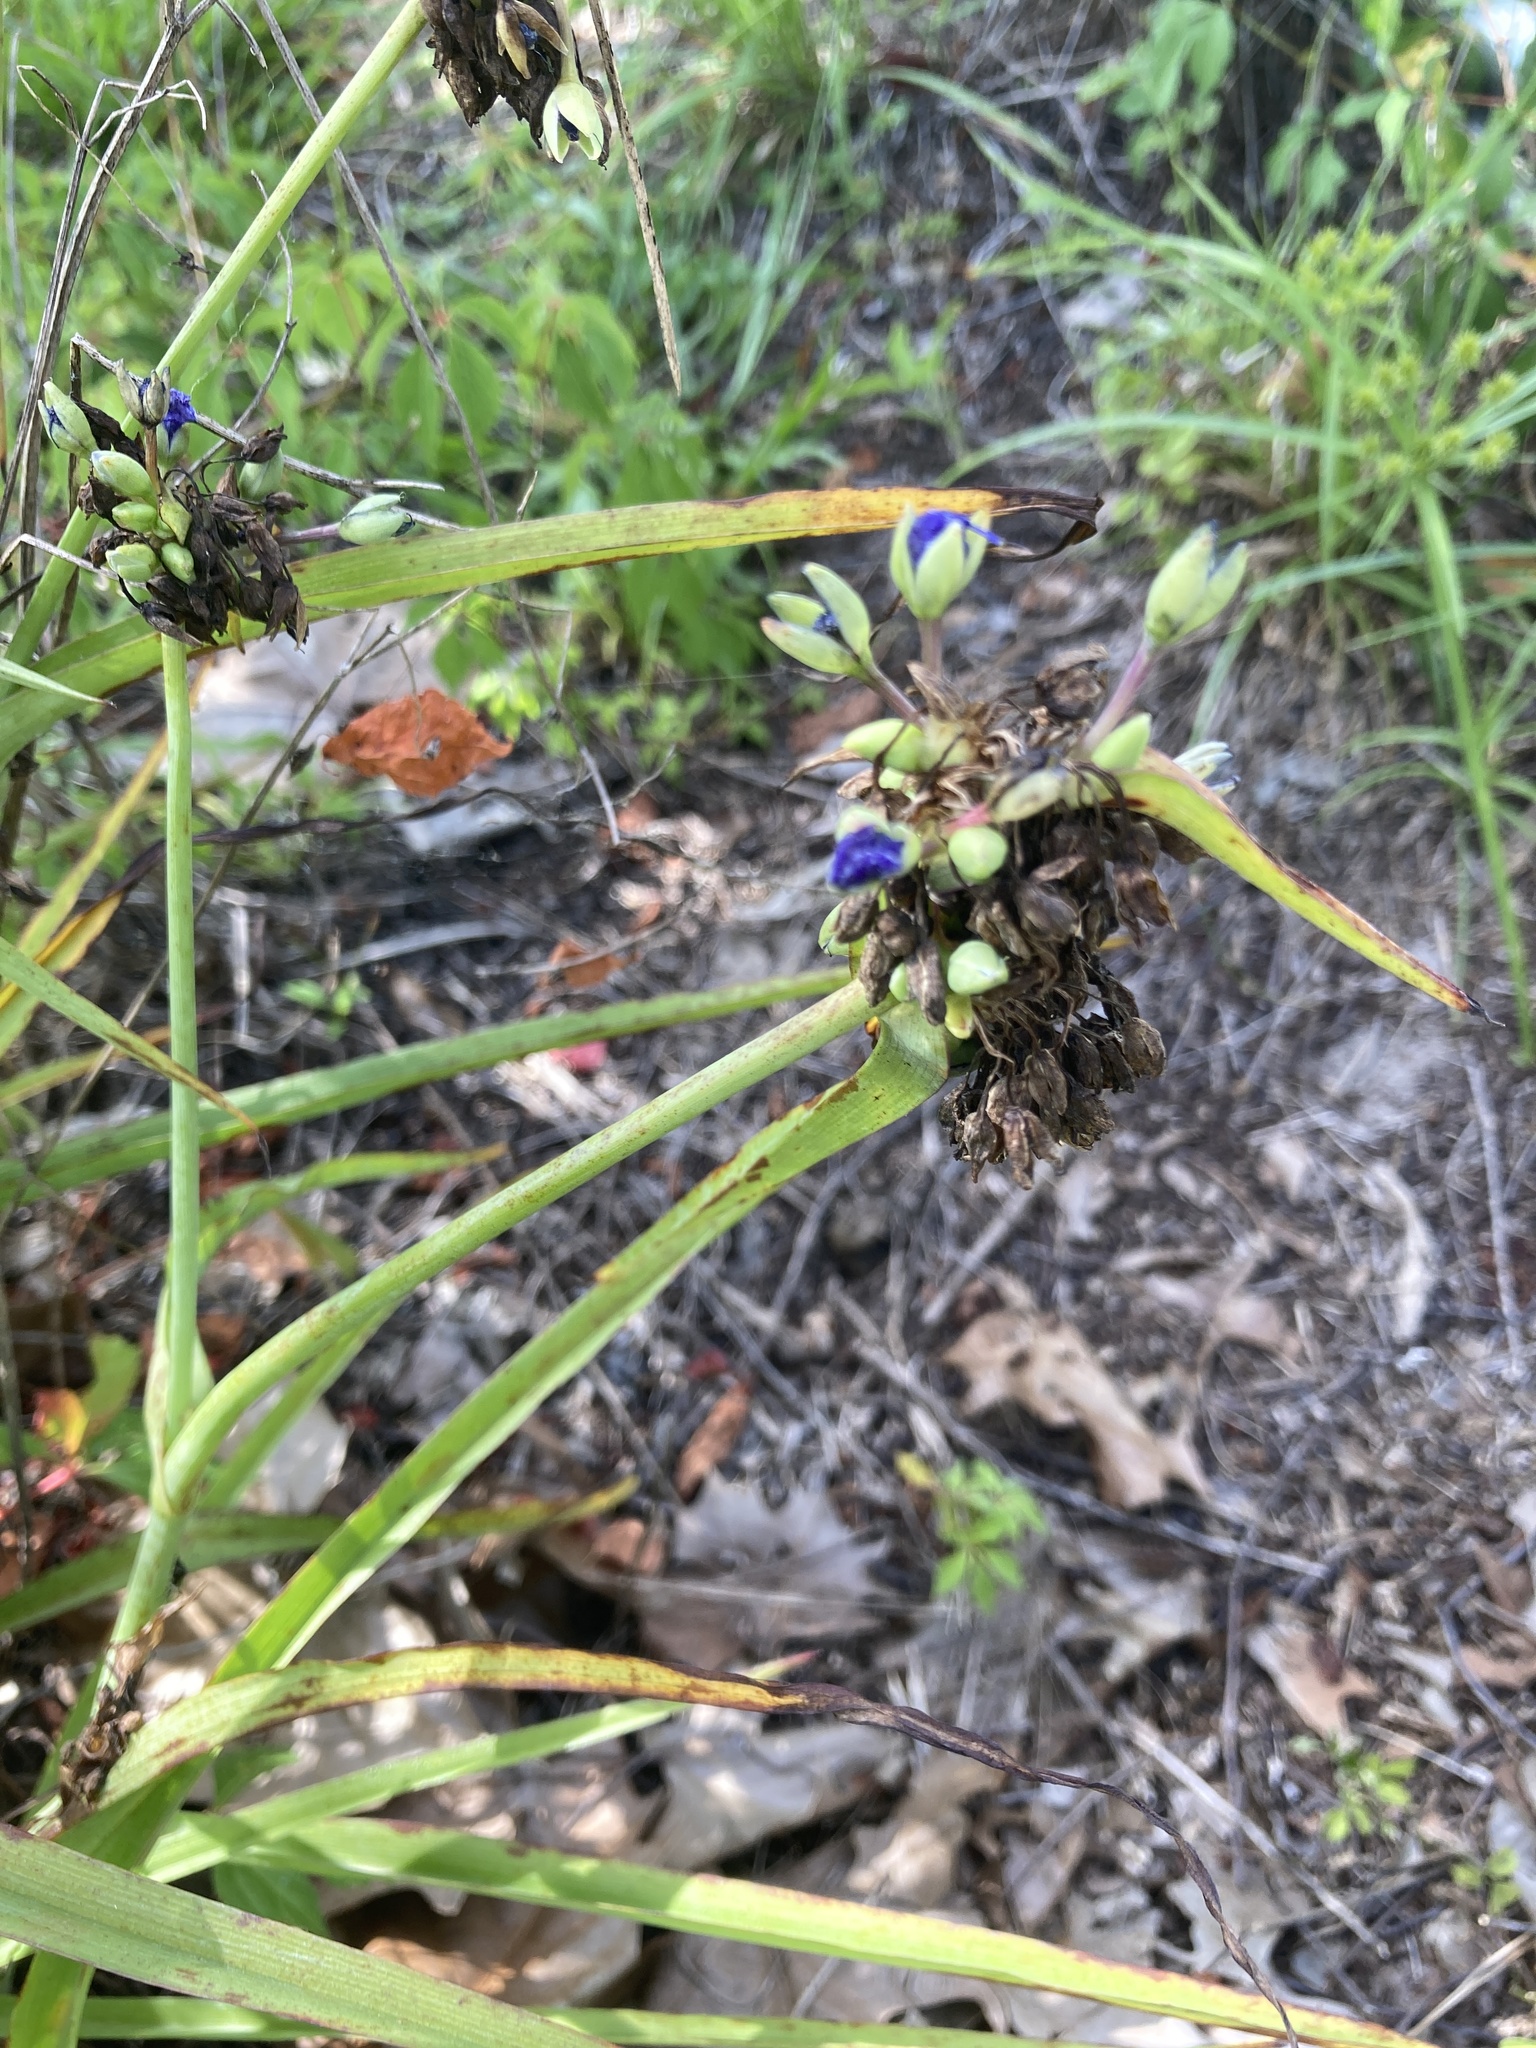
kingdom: Plantae
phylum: Tracheophyta
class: Liliopsida
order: Commelinales
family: Commelinaceae
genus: Tradescantia
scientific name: Tradescantia ohiensis
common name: Ohio spiderwort
